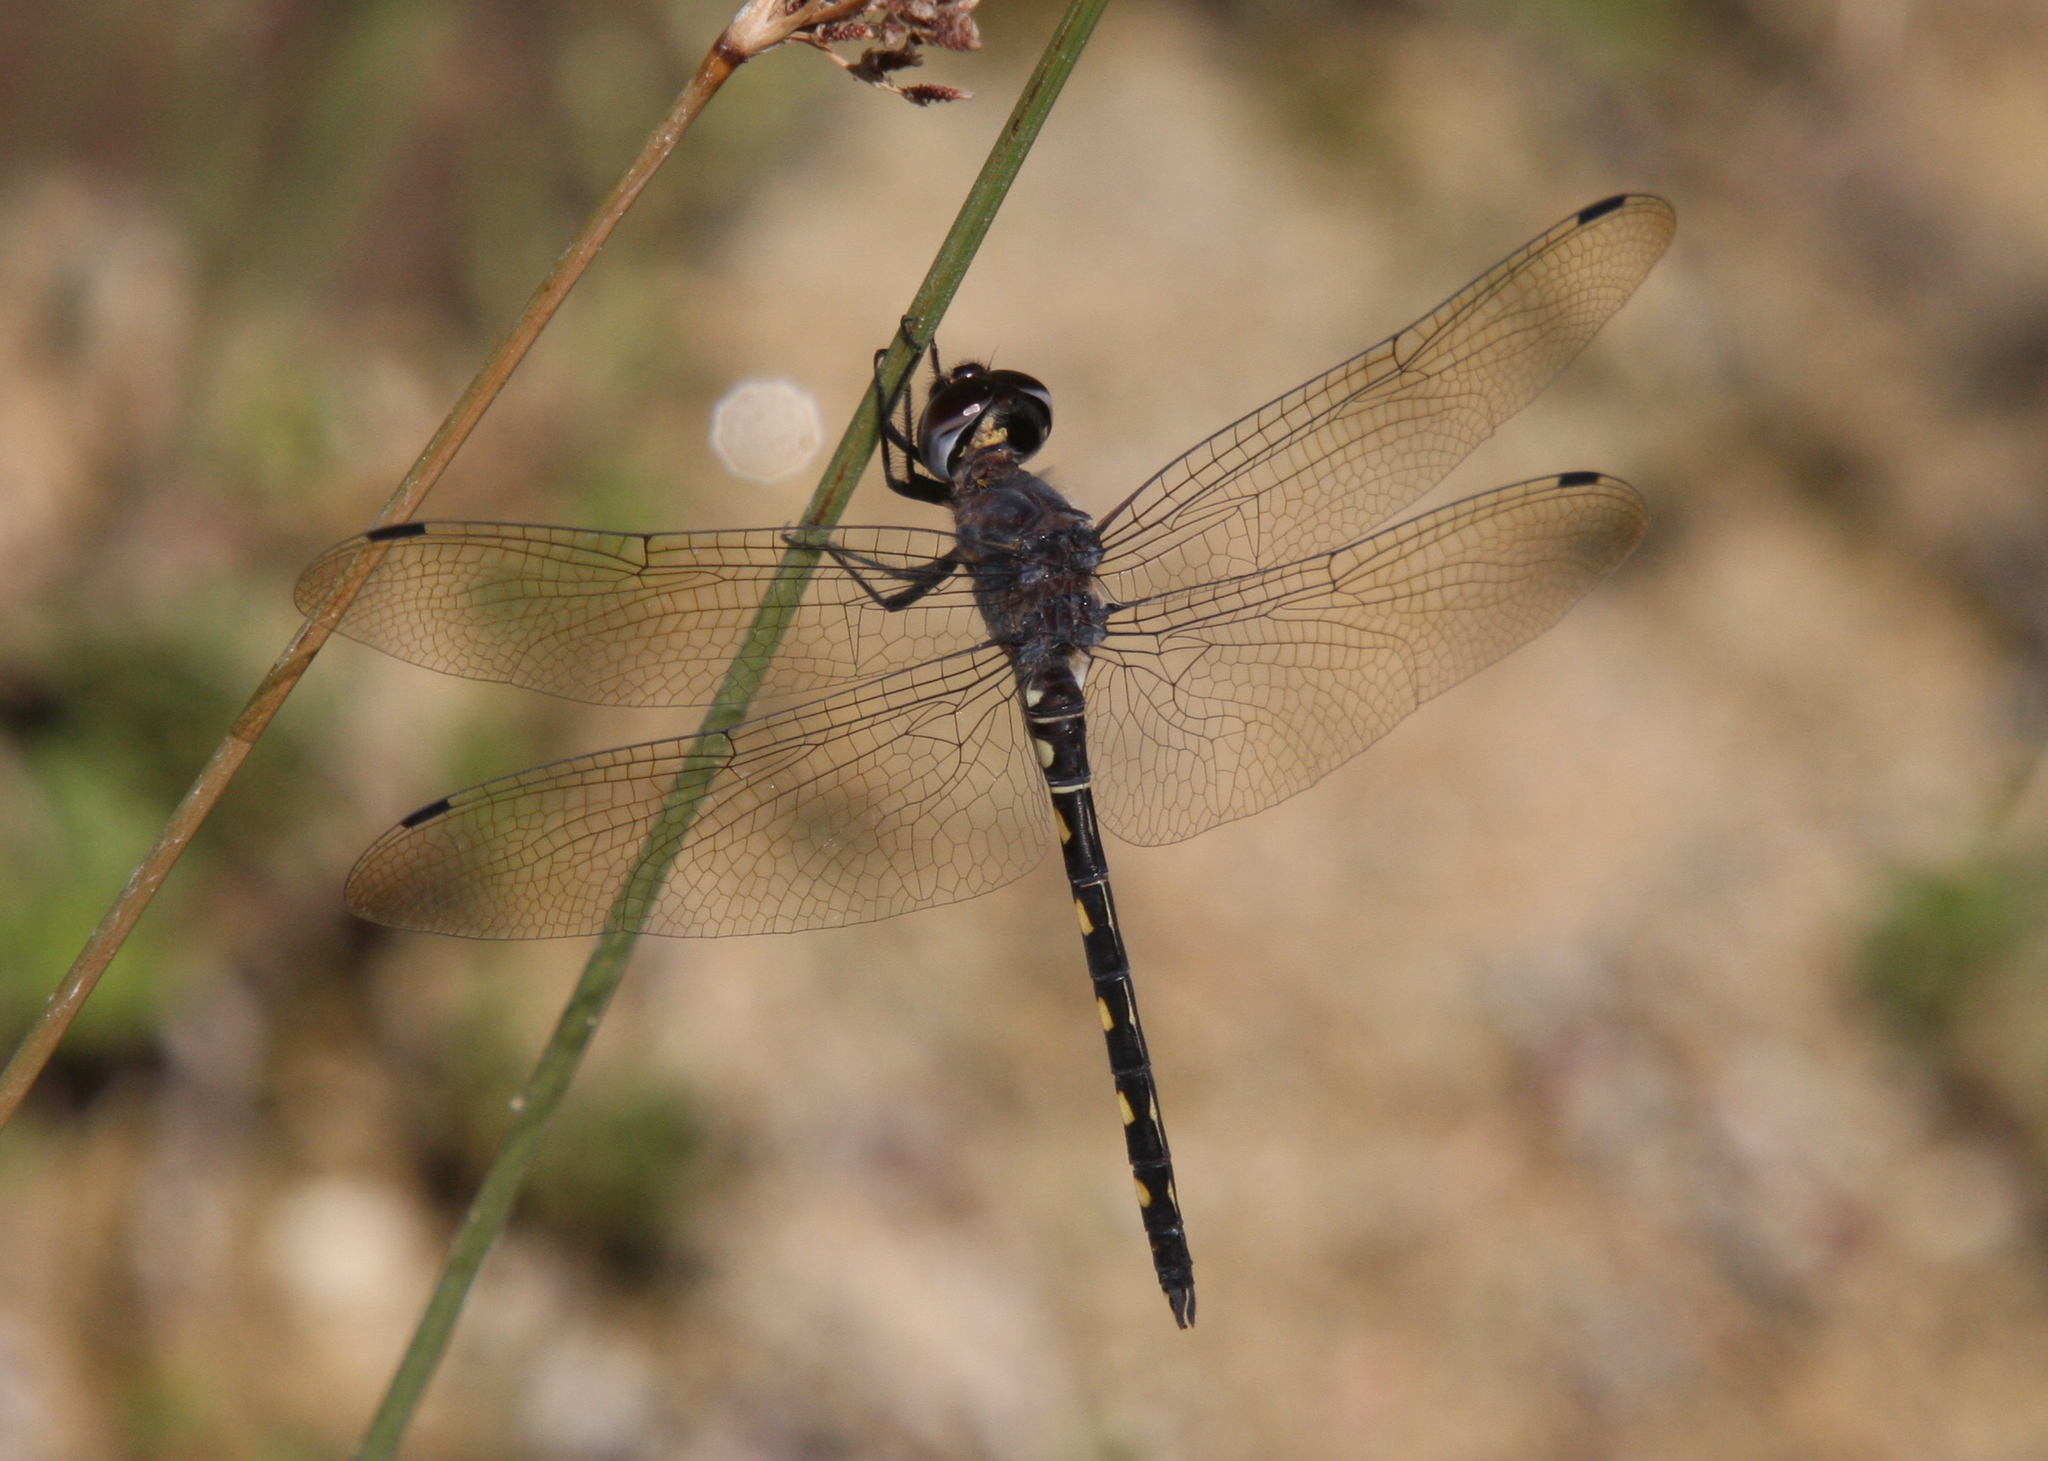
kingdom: Animalia
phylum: Arthropoda
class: Insecta
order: Odonata
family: Libellulidae
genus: Zygonyx
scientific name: Zygonyx torridus
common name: Ringed cascader
